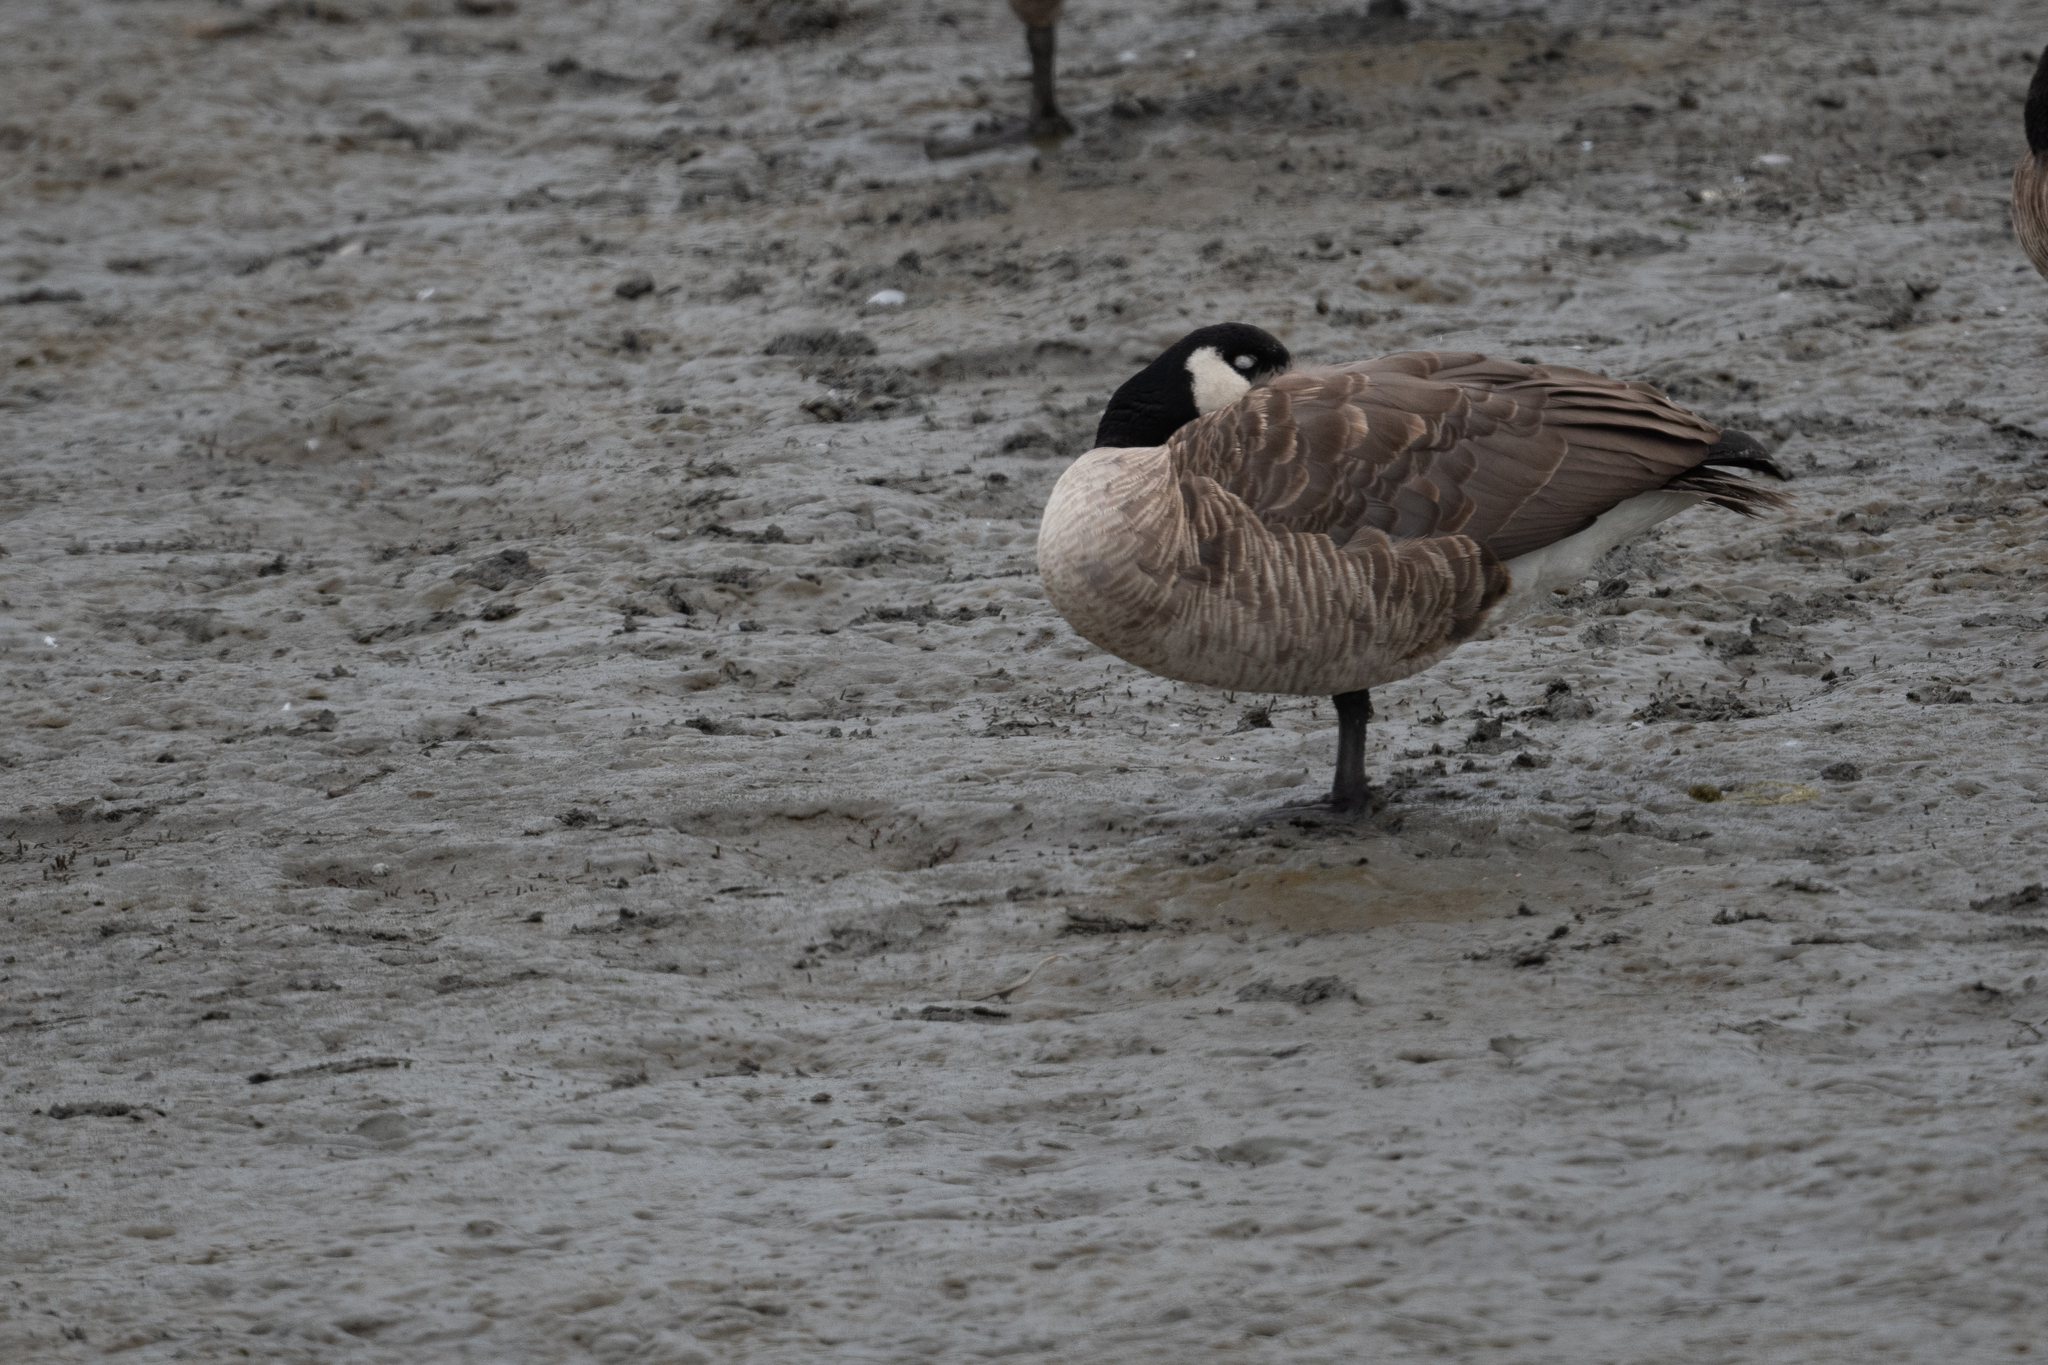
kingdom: Animalia
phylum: Chordata
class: Aves
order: Anseriformes
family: Anatidae
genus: Branta
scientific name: Branta canadensis
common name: Canada goose
